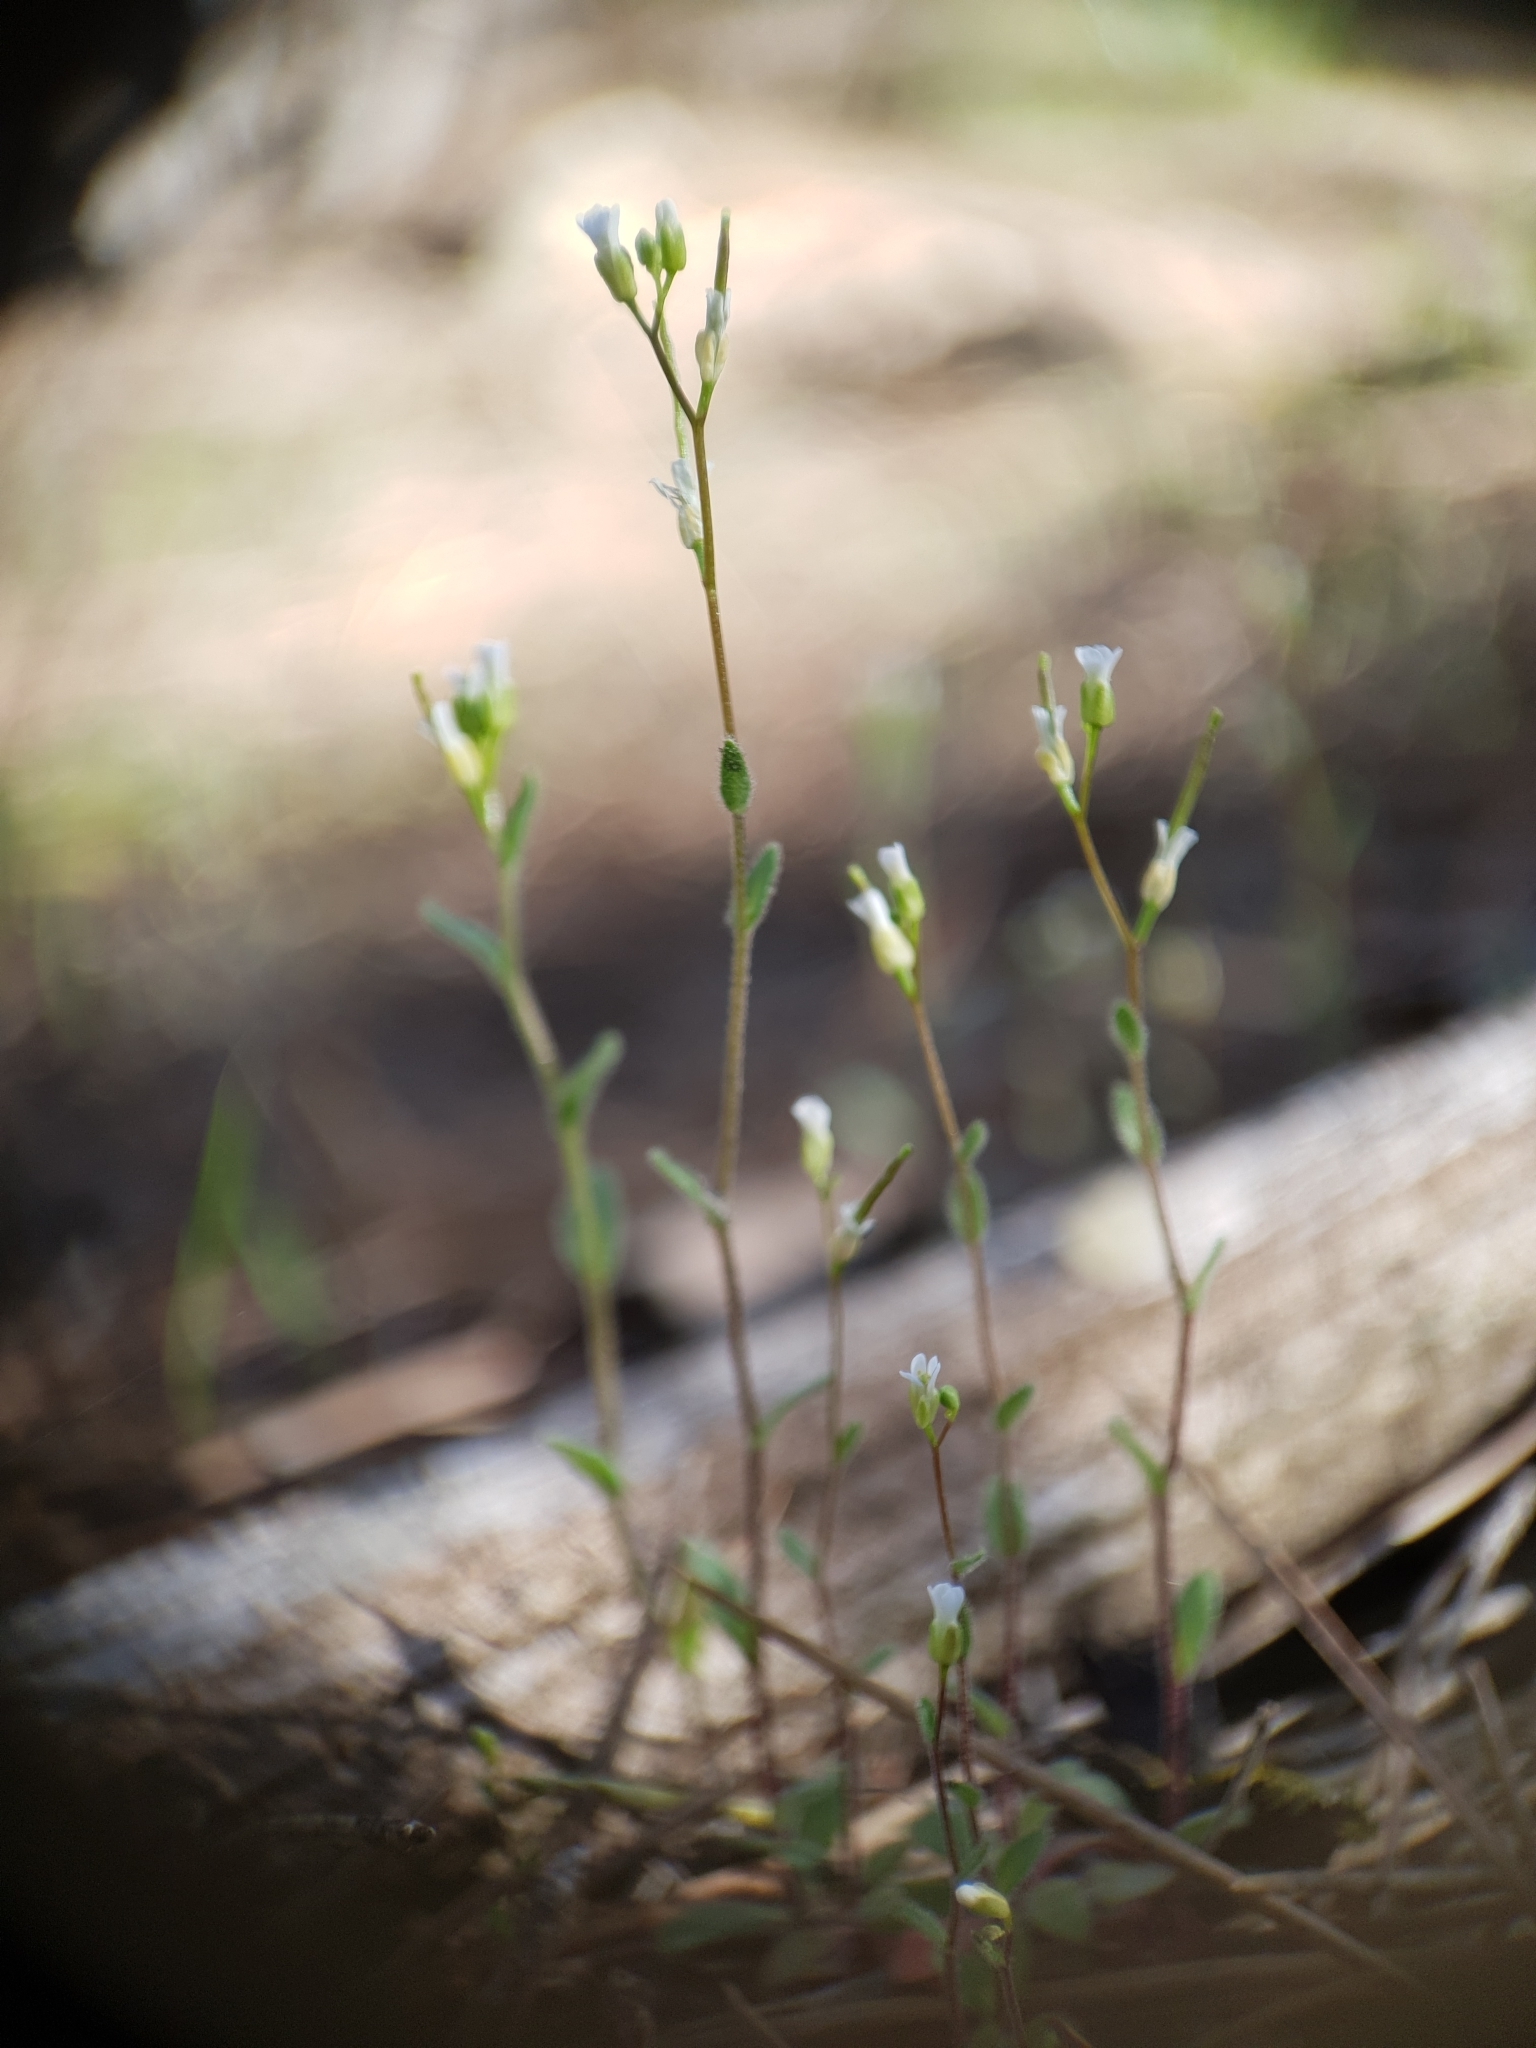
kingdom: Plantae
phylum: Tracheophyta
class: Magnoliopsida
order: Brassicales
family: Brassicaceae
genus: Arabis
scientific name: Arabis auriculata
